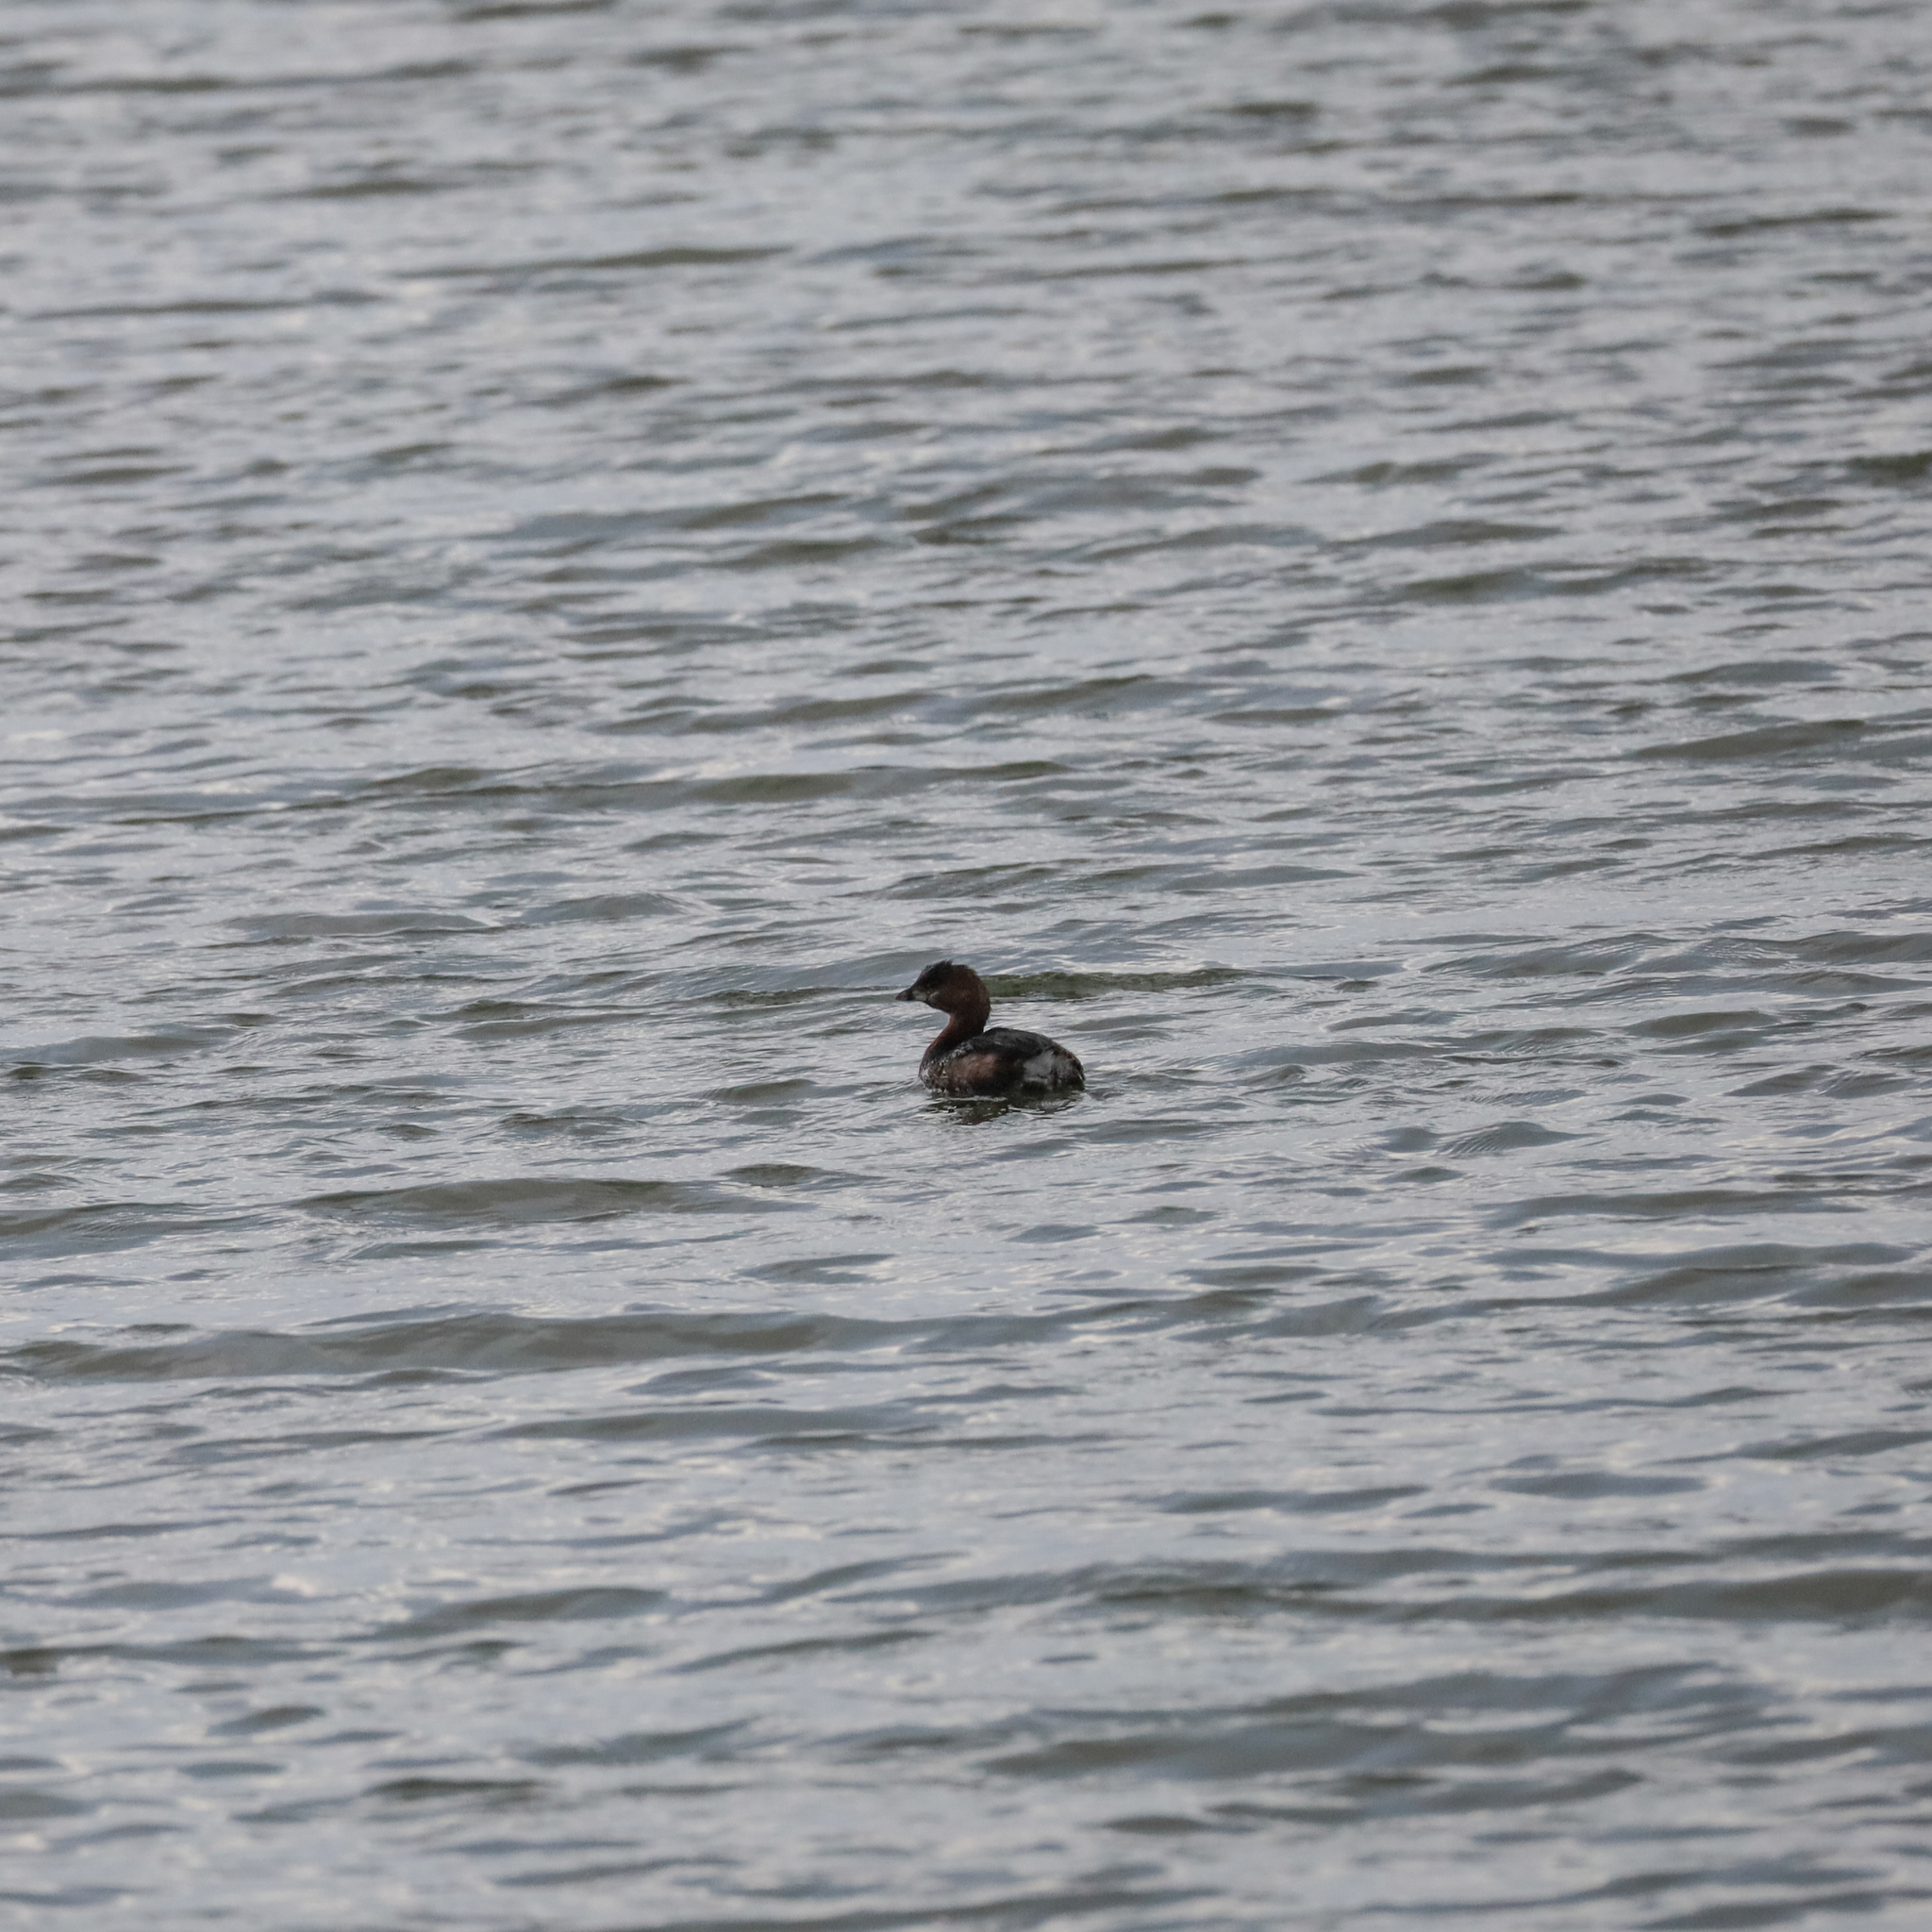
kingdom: Animalia
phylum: Chordata
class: Aves
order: Podicipediformes
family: Podicipedidae
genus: Podilymbus
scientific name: Podilymbus podiceps
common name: Pied-billed grebe
